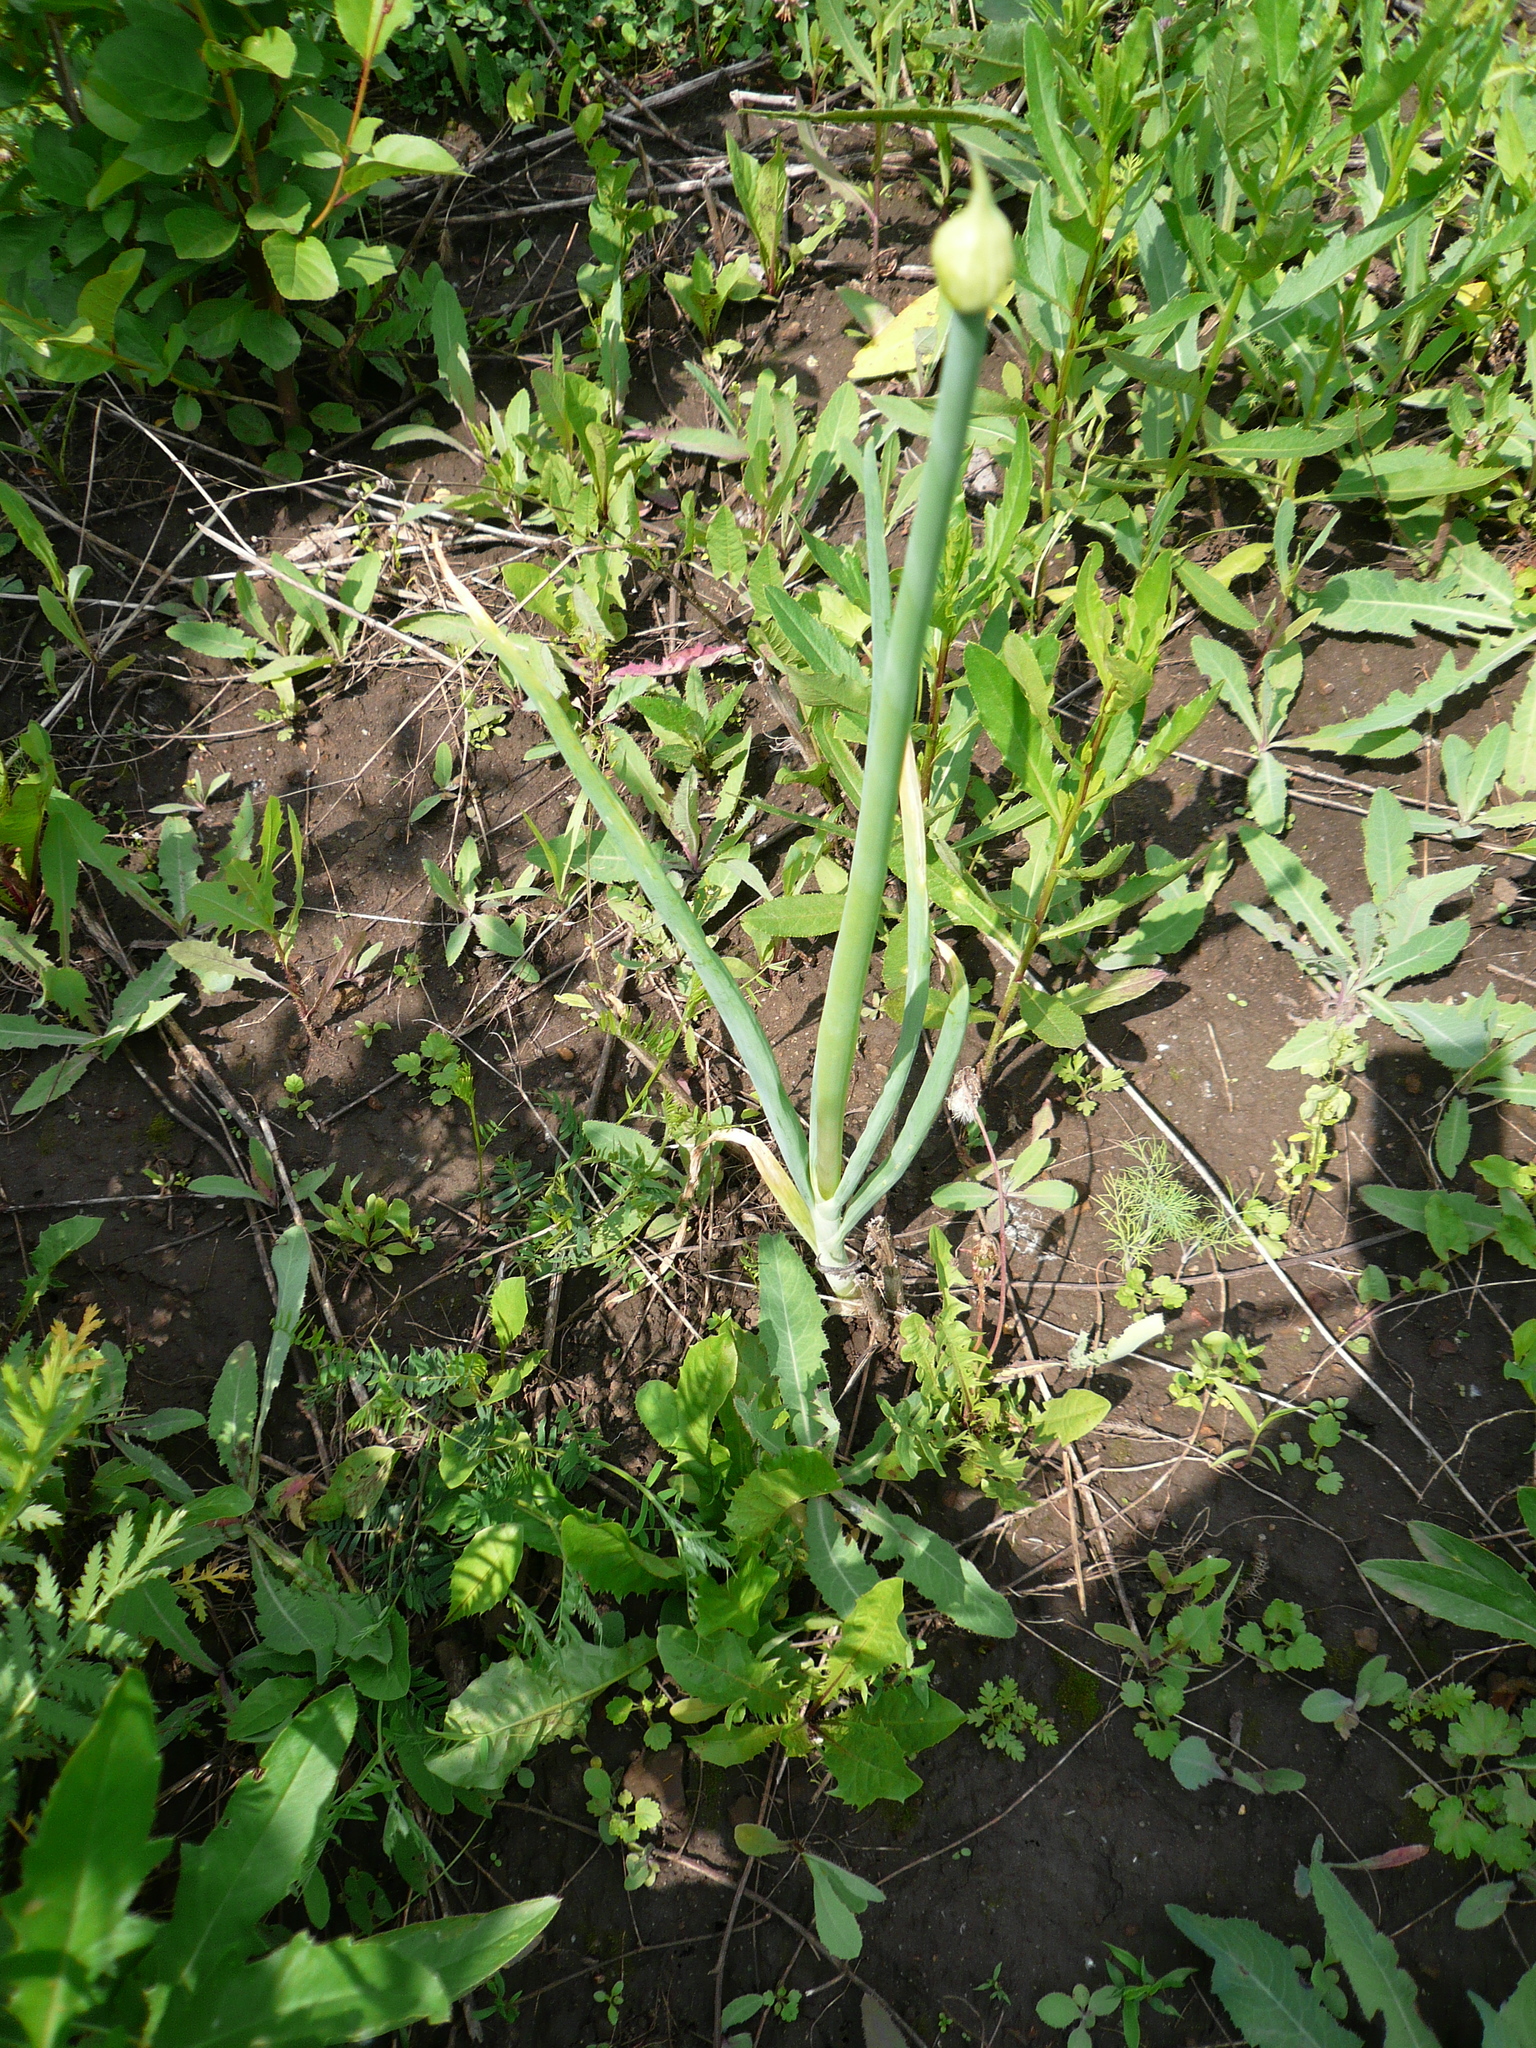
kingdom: Plantae
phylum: Tracheophyta
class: Liliopsida
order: Asparagales
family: Amaryllidaceae
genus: Allium
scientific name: Allium fistulosum
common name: Welsh onion
